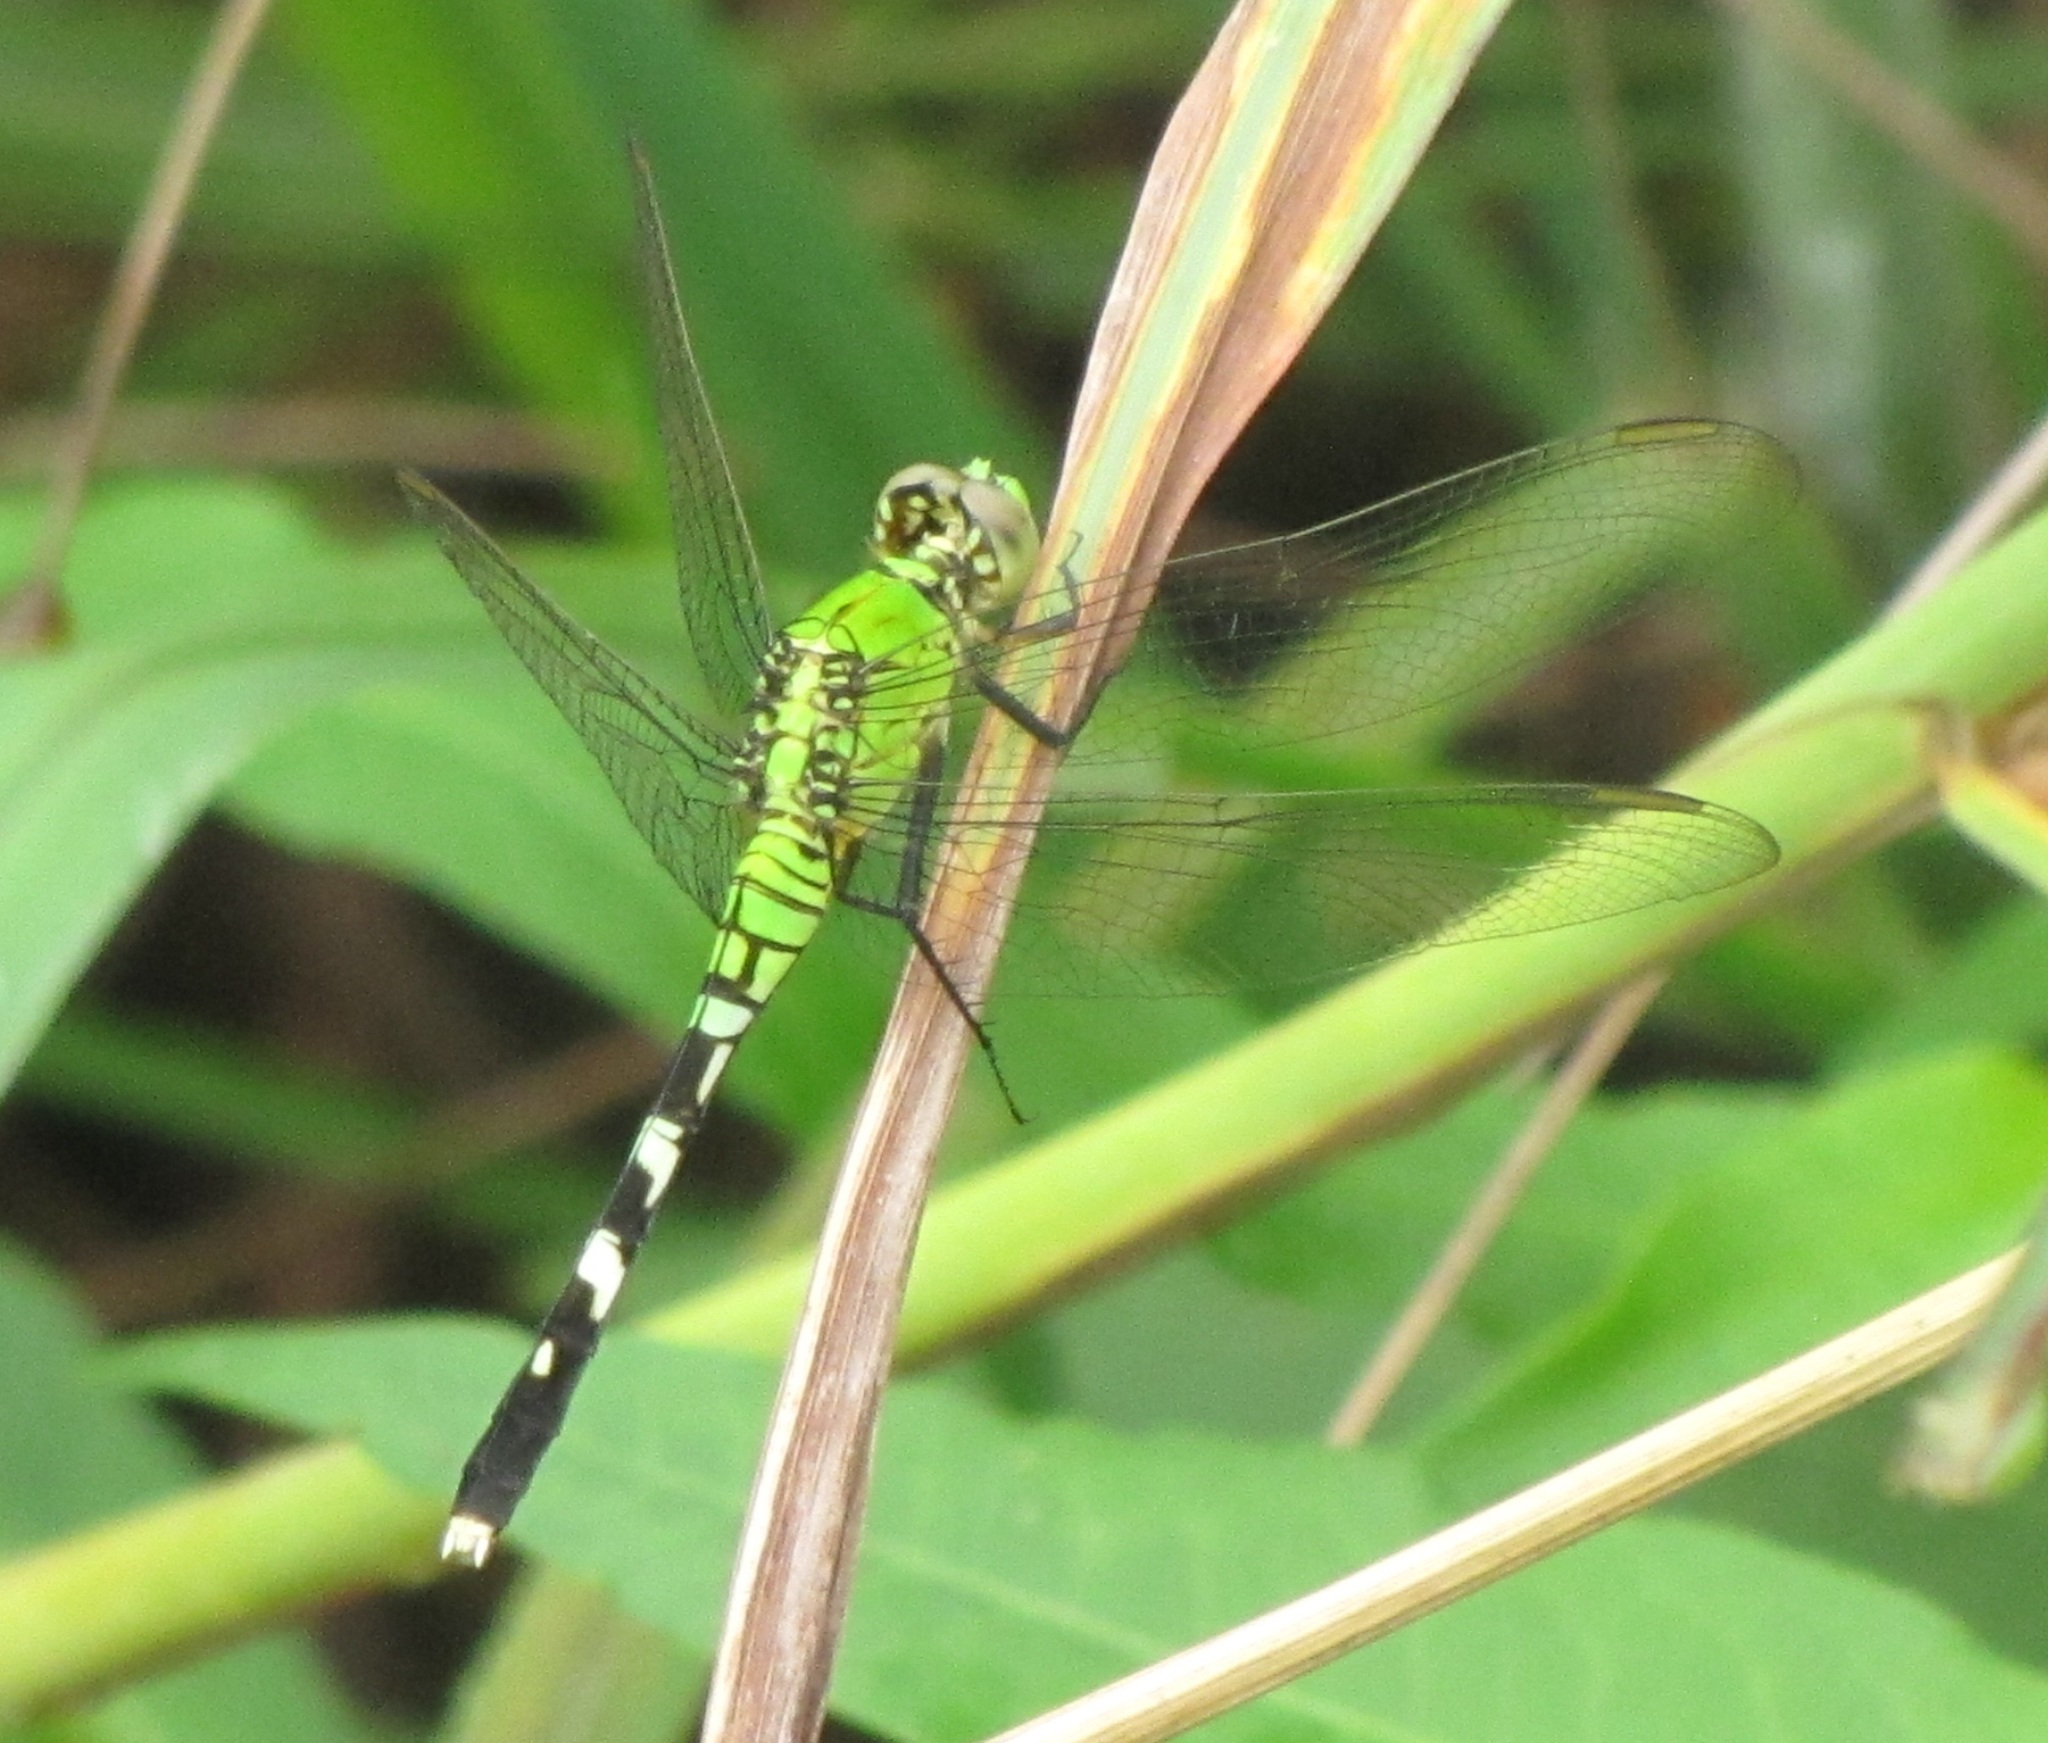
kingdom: Animalia
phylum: Arthropoda
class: Insecta
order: Odonata
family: Libellulidae
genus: Erythemis
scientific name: Erythemis simplicicollis
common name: Eastern pondhawk
